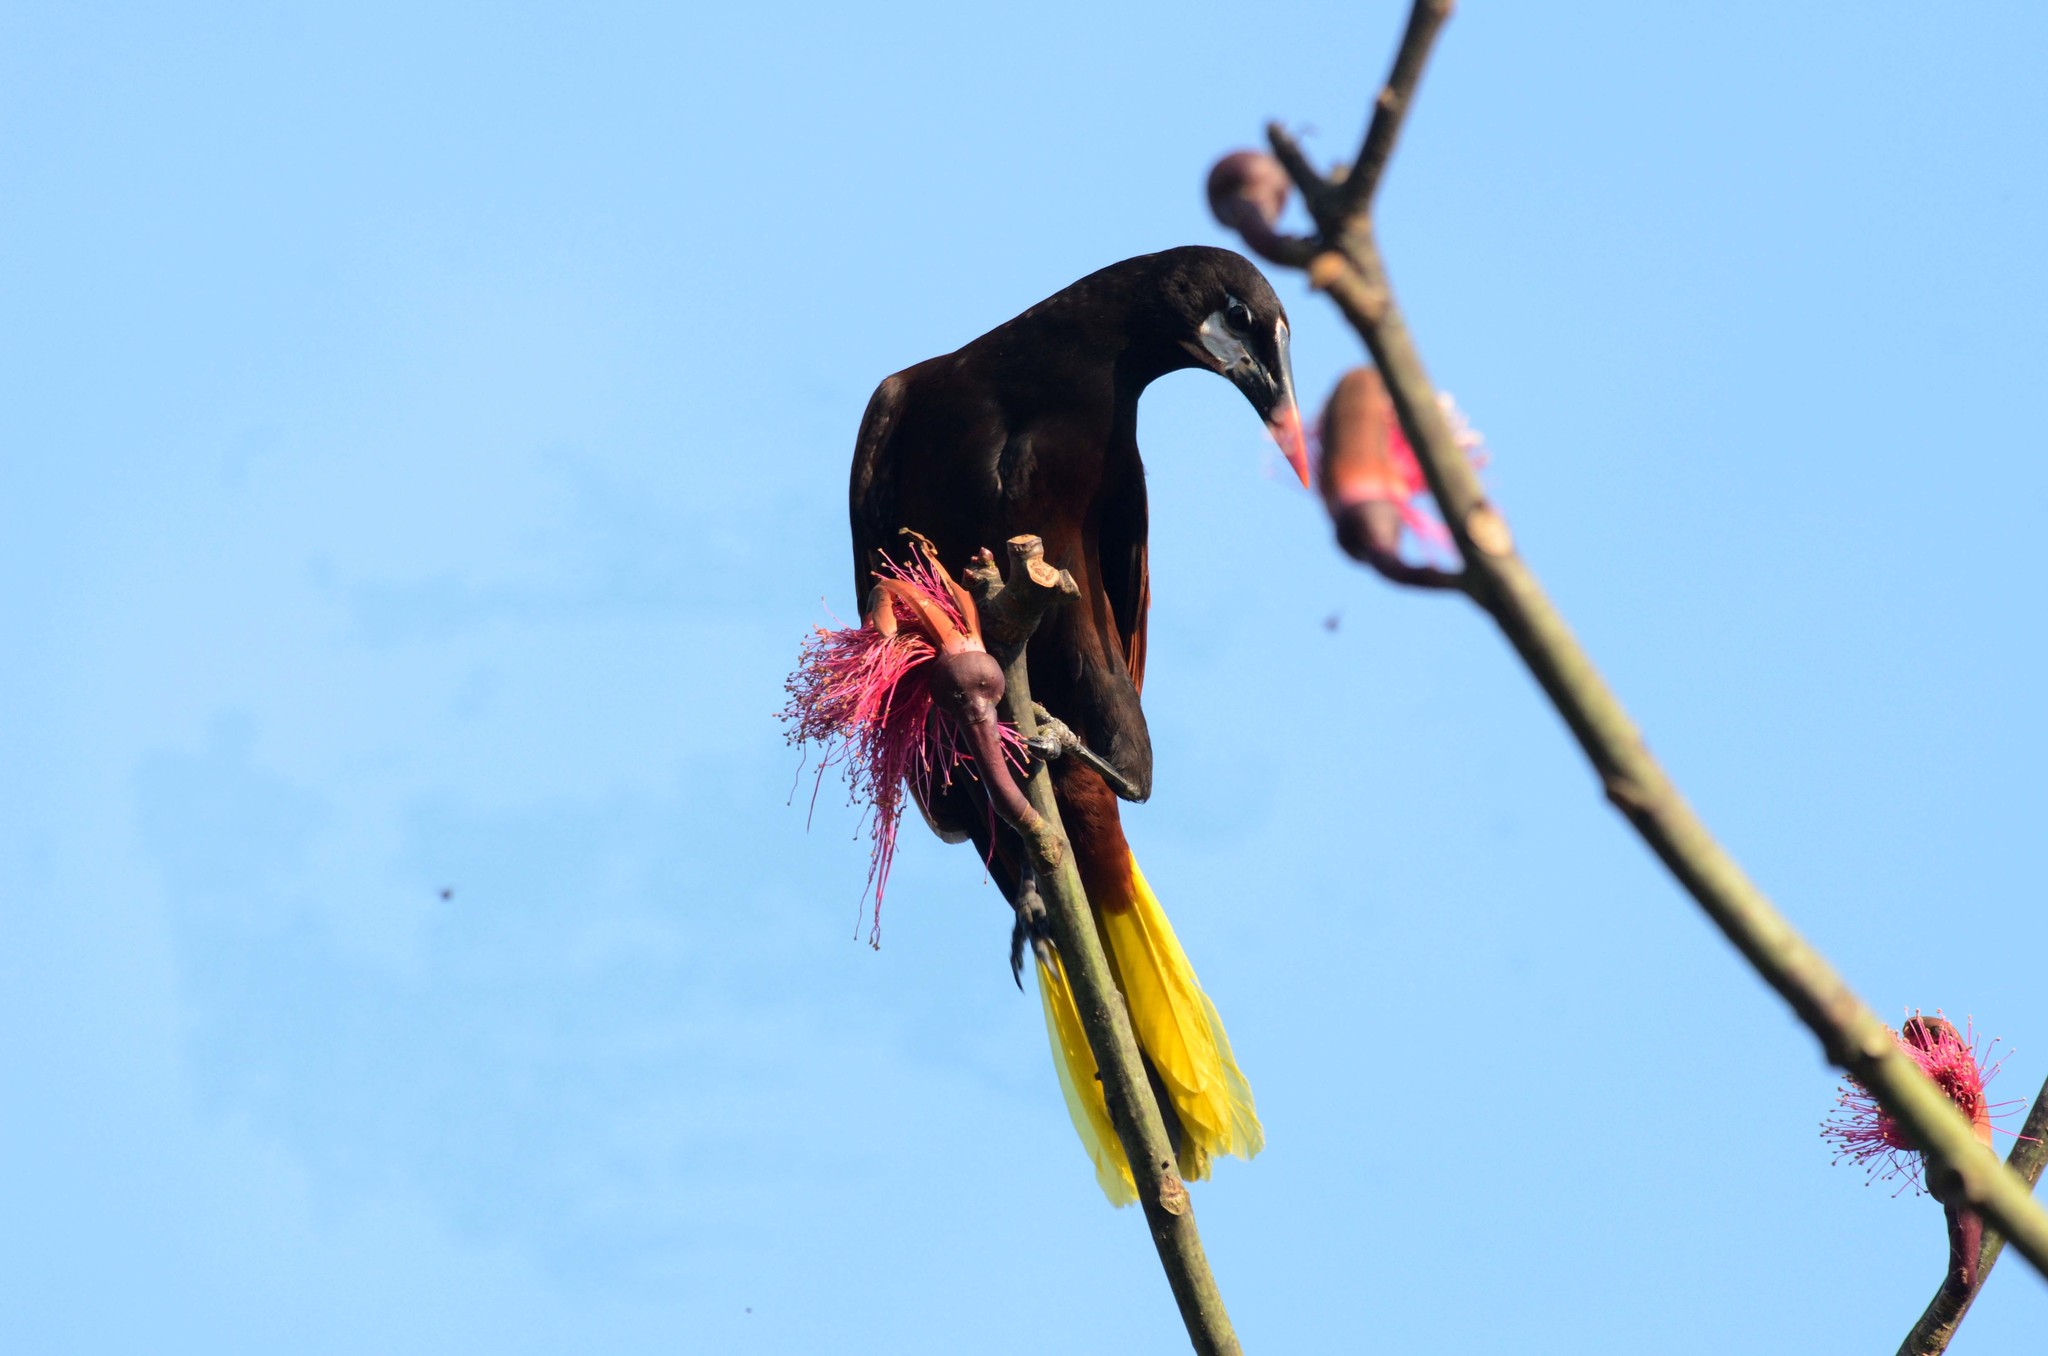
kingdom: Animalia
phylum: Chordata
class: Aves
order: Passeriformes
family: Icteridae
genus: Psarocolius
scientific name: Psarocolius montezuma
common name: Montezuma oropendola
